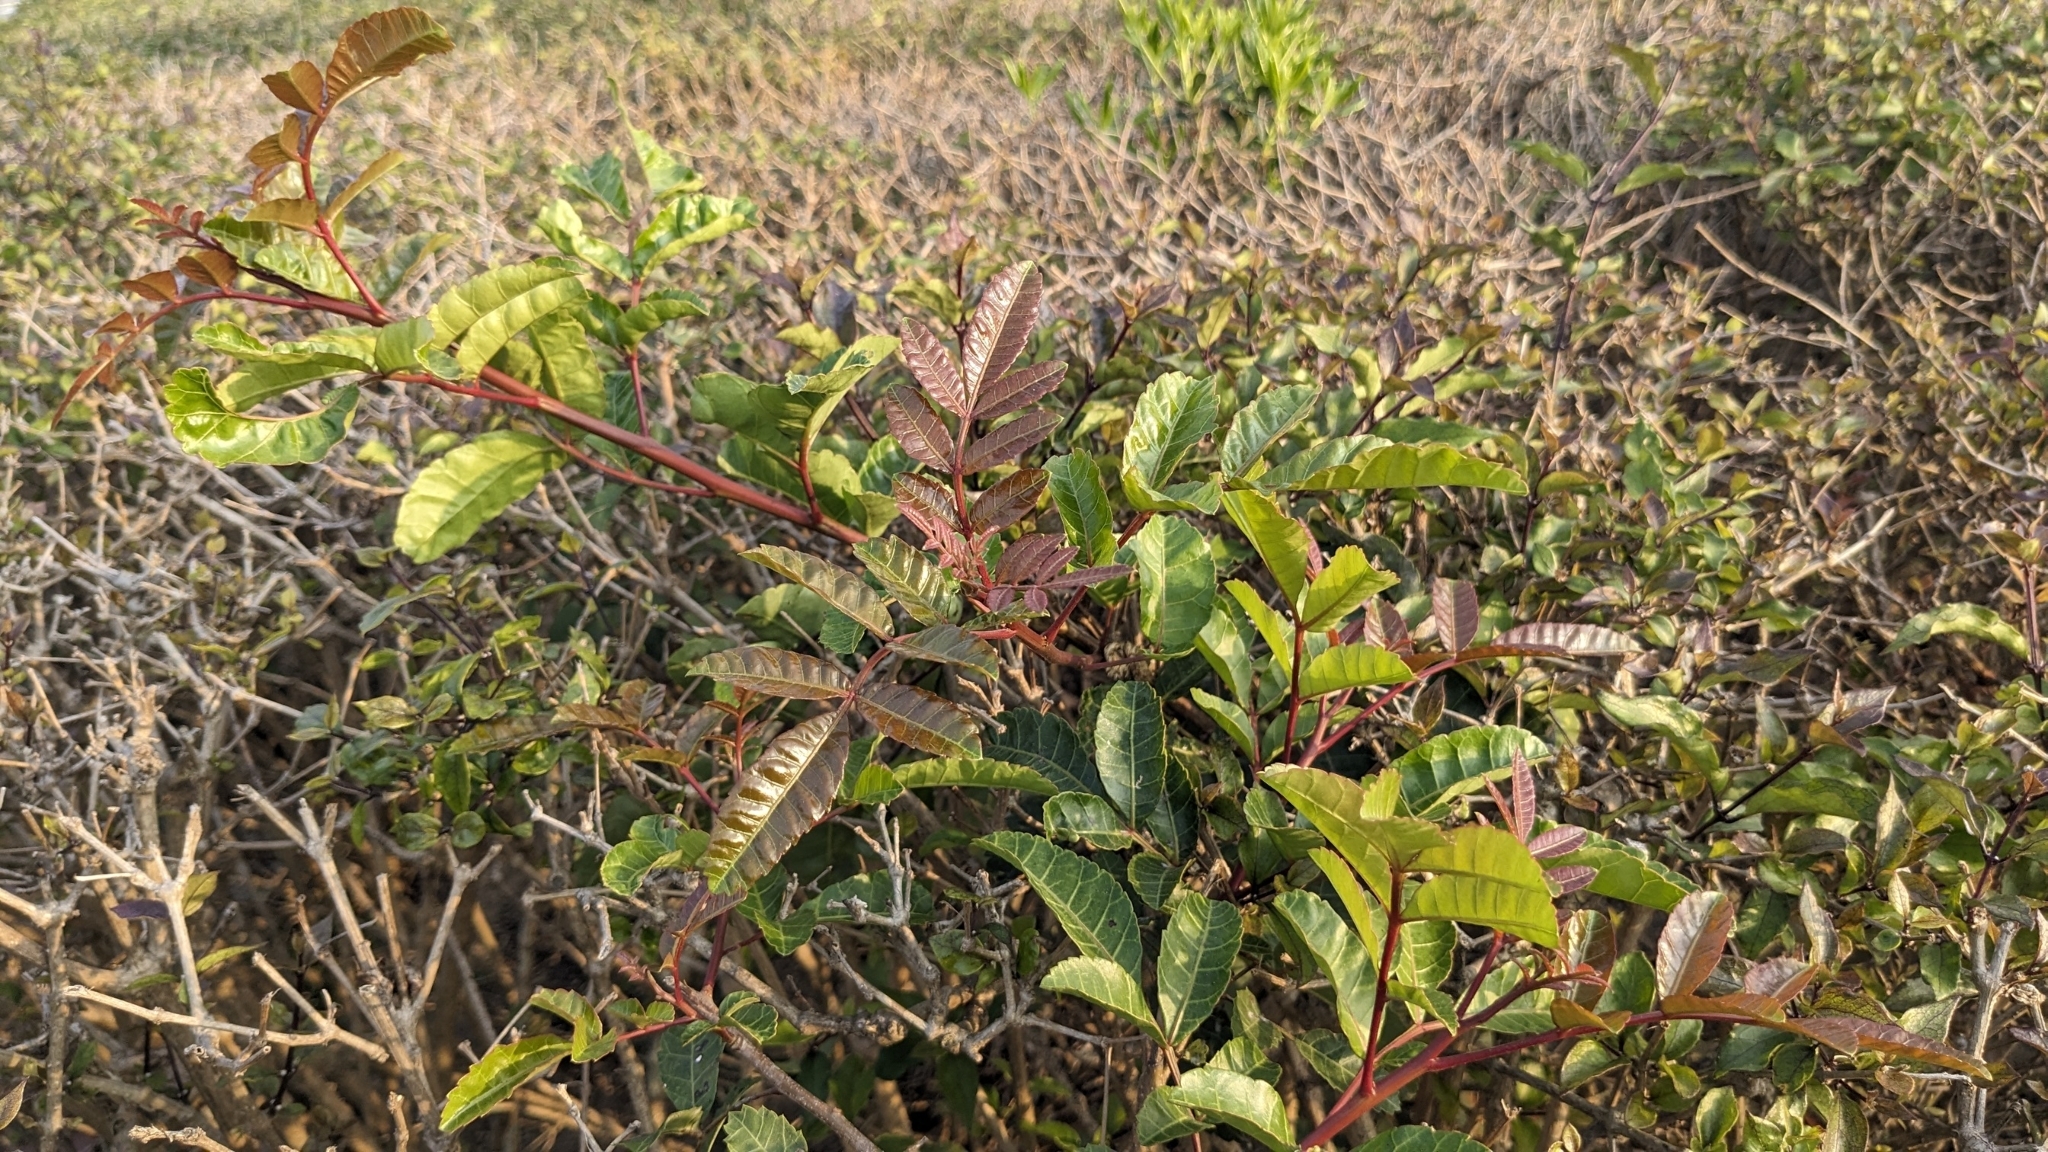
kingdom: Plantae
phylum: Tracheophyta
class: Magnoliopsida
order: Sapindales
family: Anacardiaceae
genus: Schinus
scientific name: Schinus terebinthifolia
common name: Brazilian peppertree
